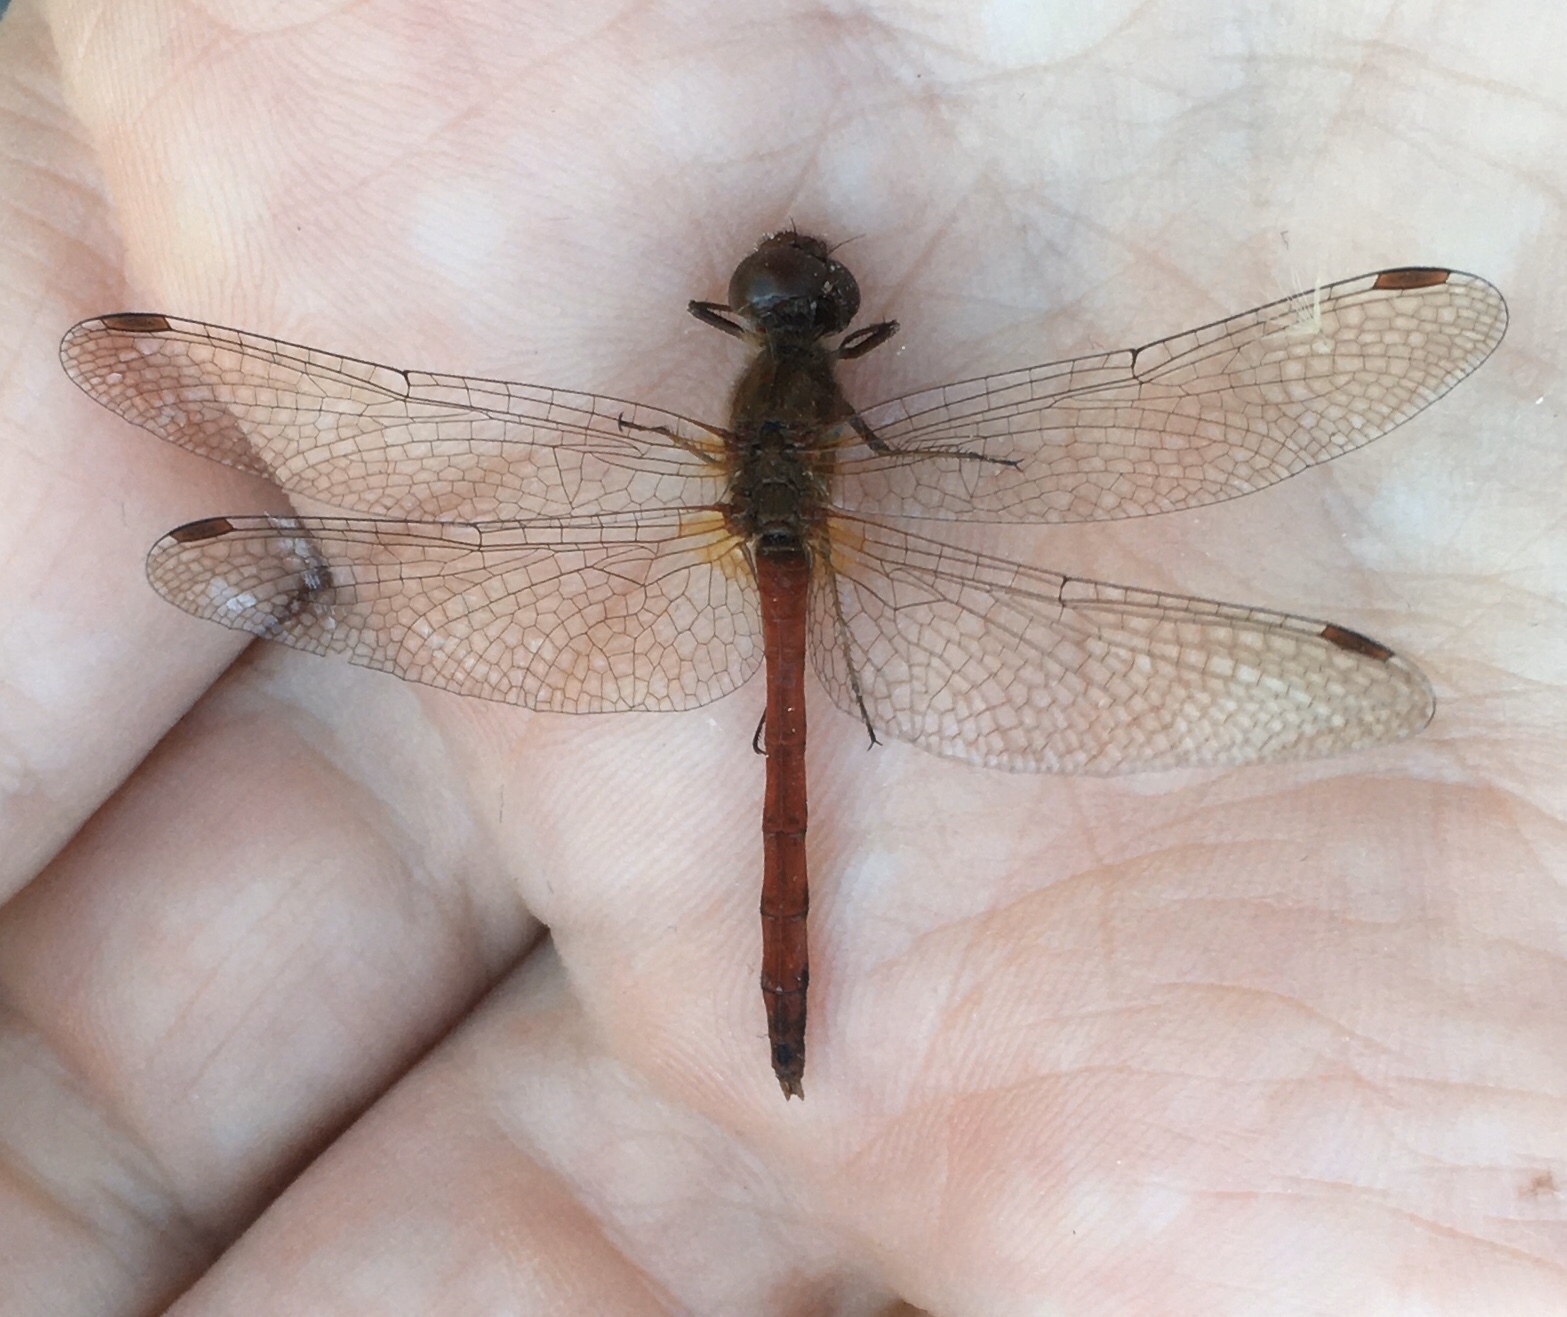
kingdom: Animalia
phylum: Arthropoda
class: Insecta
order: Odonata
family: Libellulidae
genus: Sympetrum
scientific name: Sympetrum vicinum
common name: Autumn meadowhawk
